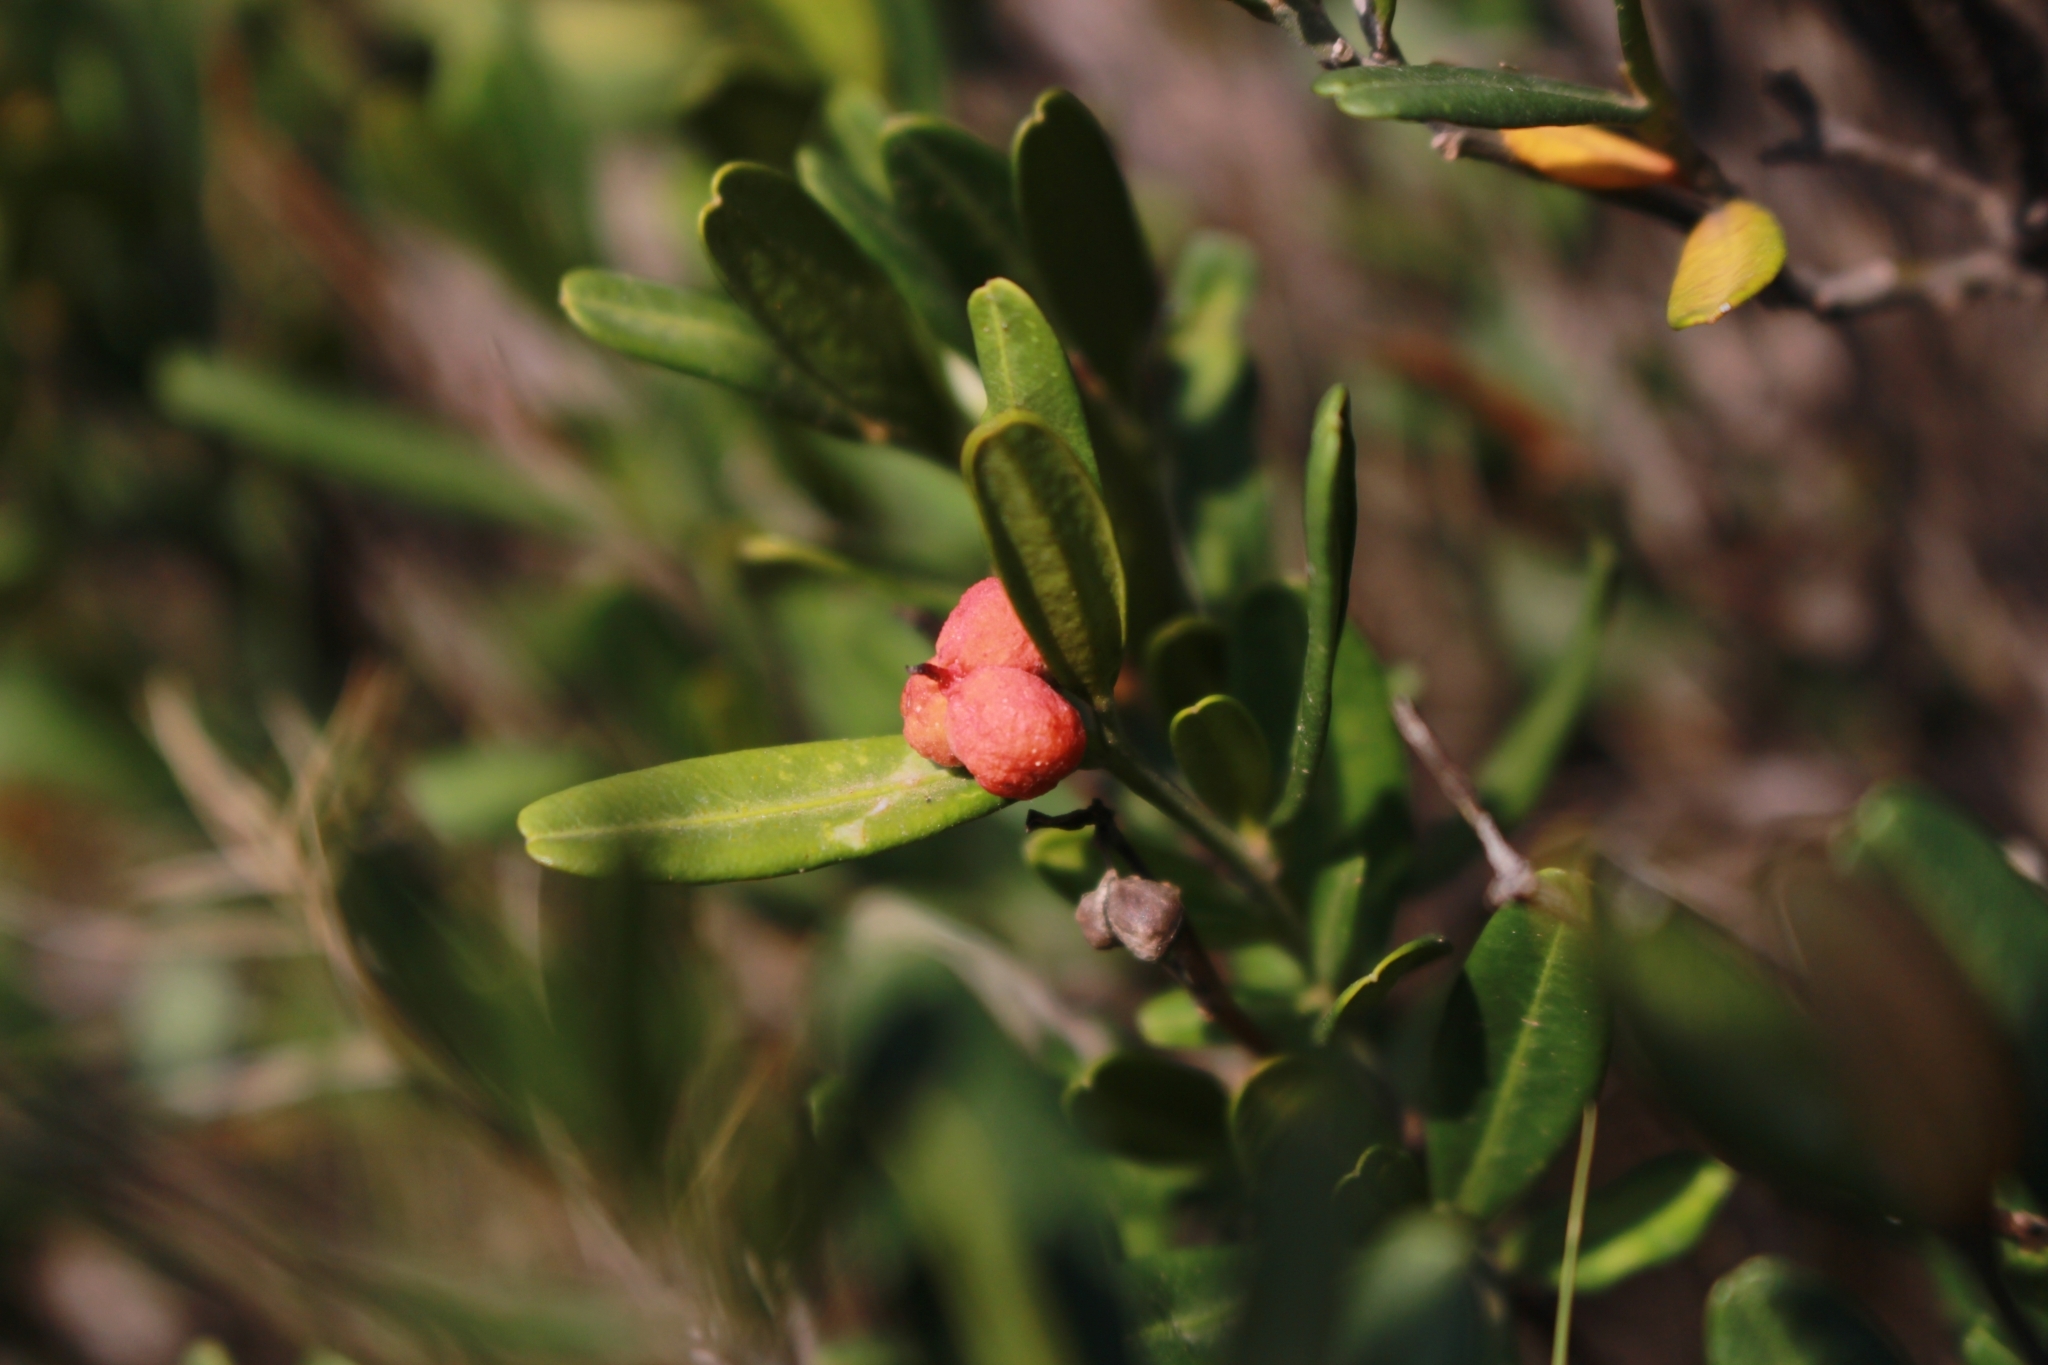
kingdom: Plantae
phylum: Tracheophyta
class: Magnoliopsida
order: Sapindales
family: Rutaceae
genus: Cneorum
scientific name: Cneorum tricoccon
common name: Spurge olive
